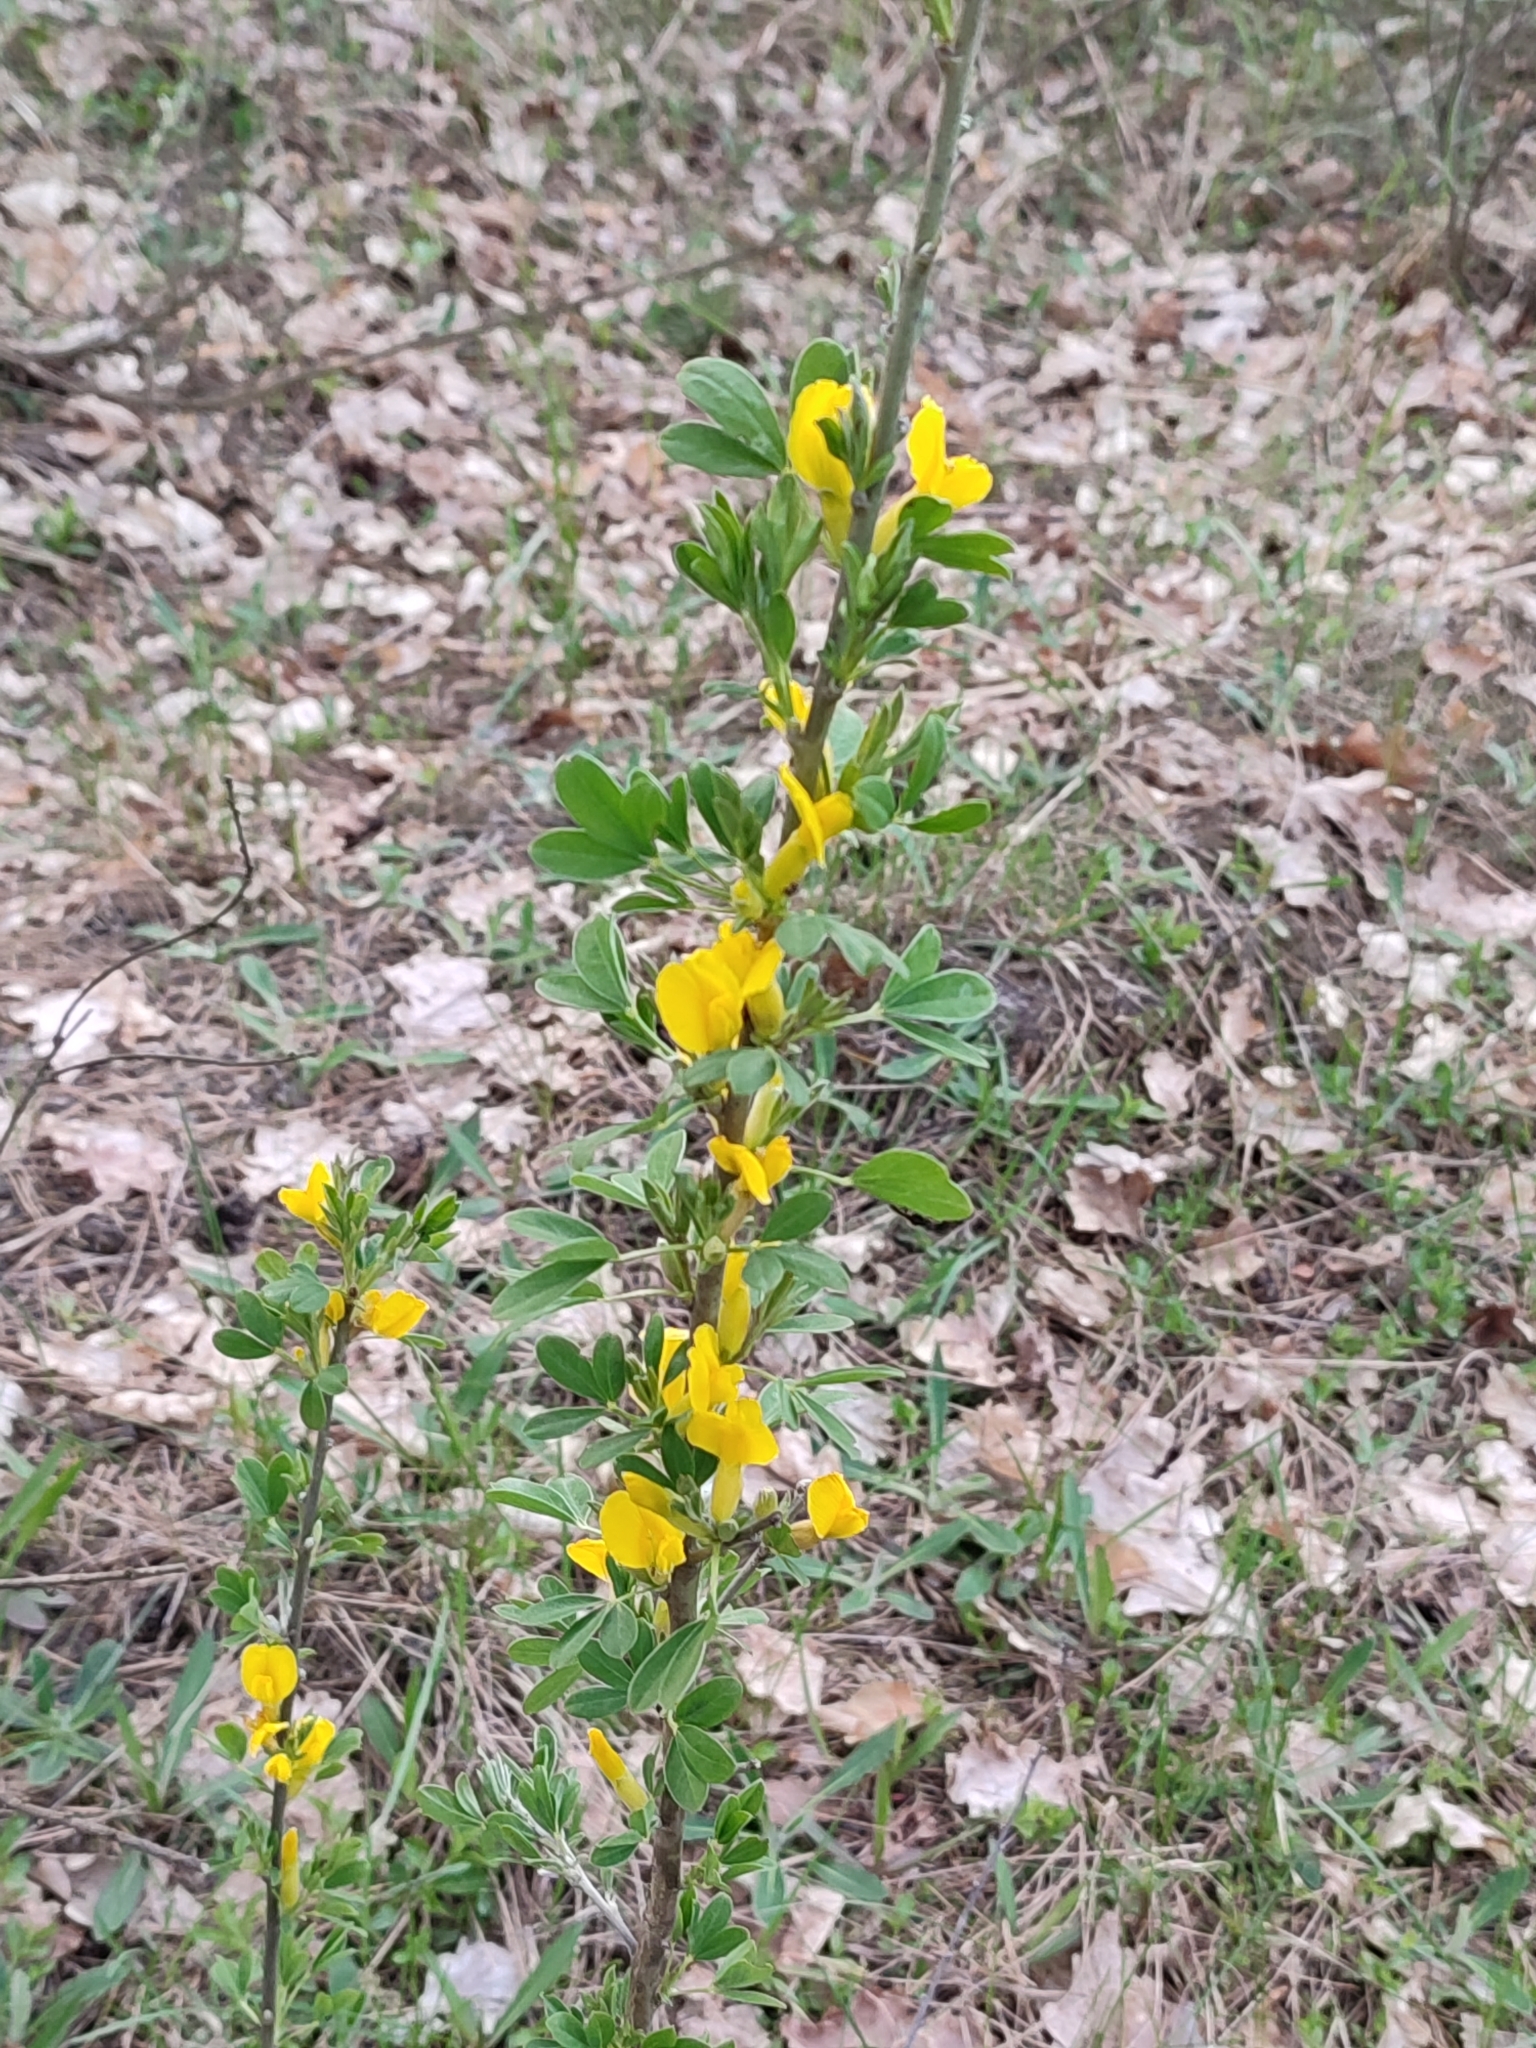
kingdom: Plantae
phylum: Tracheophyta
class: Magnoliopsida
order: Fabales
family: Fabaceae
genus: Chamaecytisus
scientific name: Chamaecytisus ruthenicus
